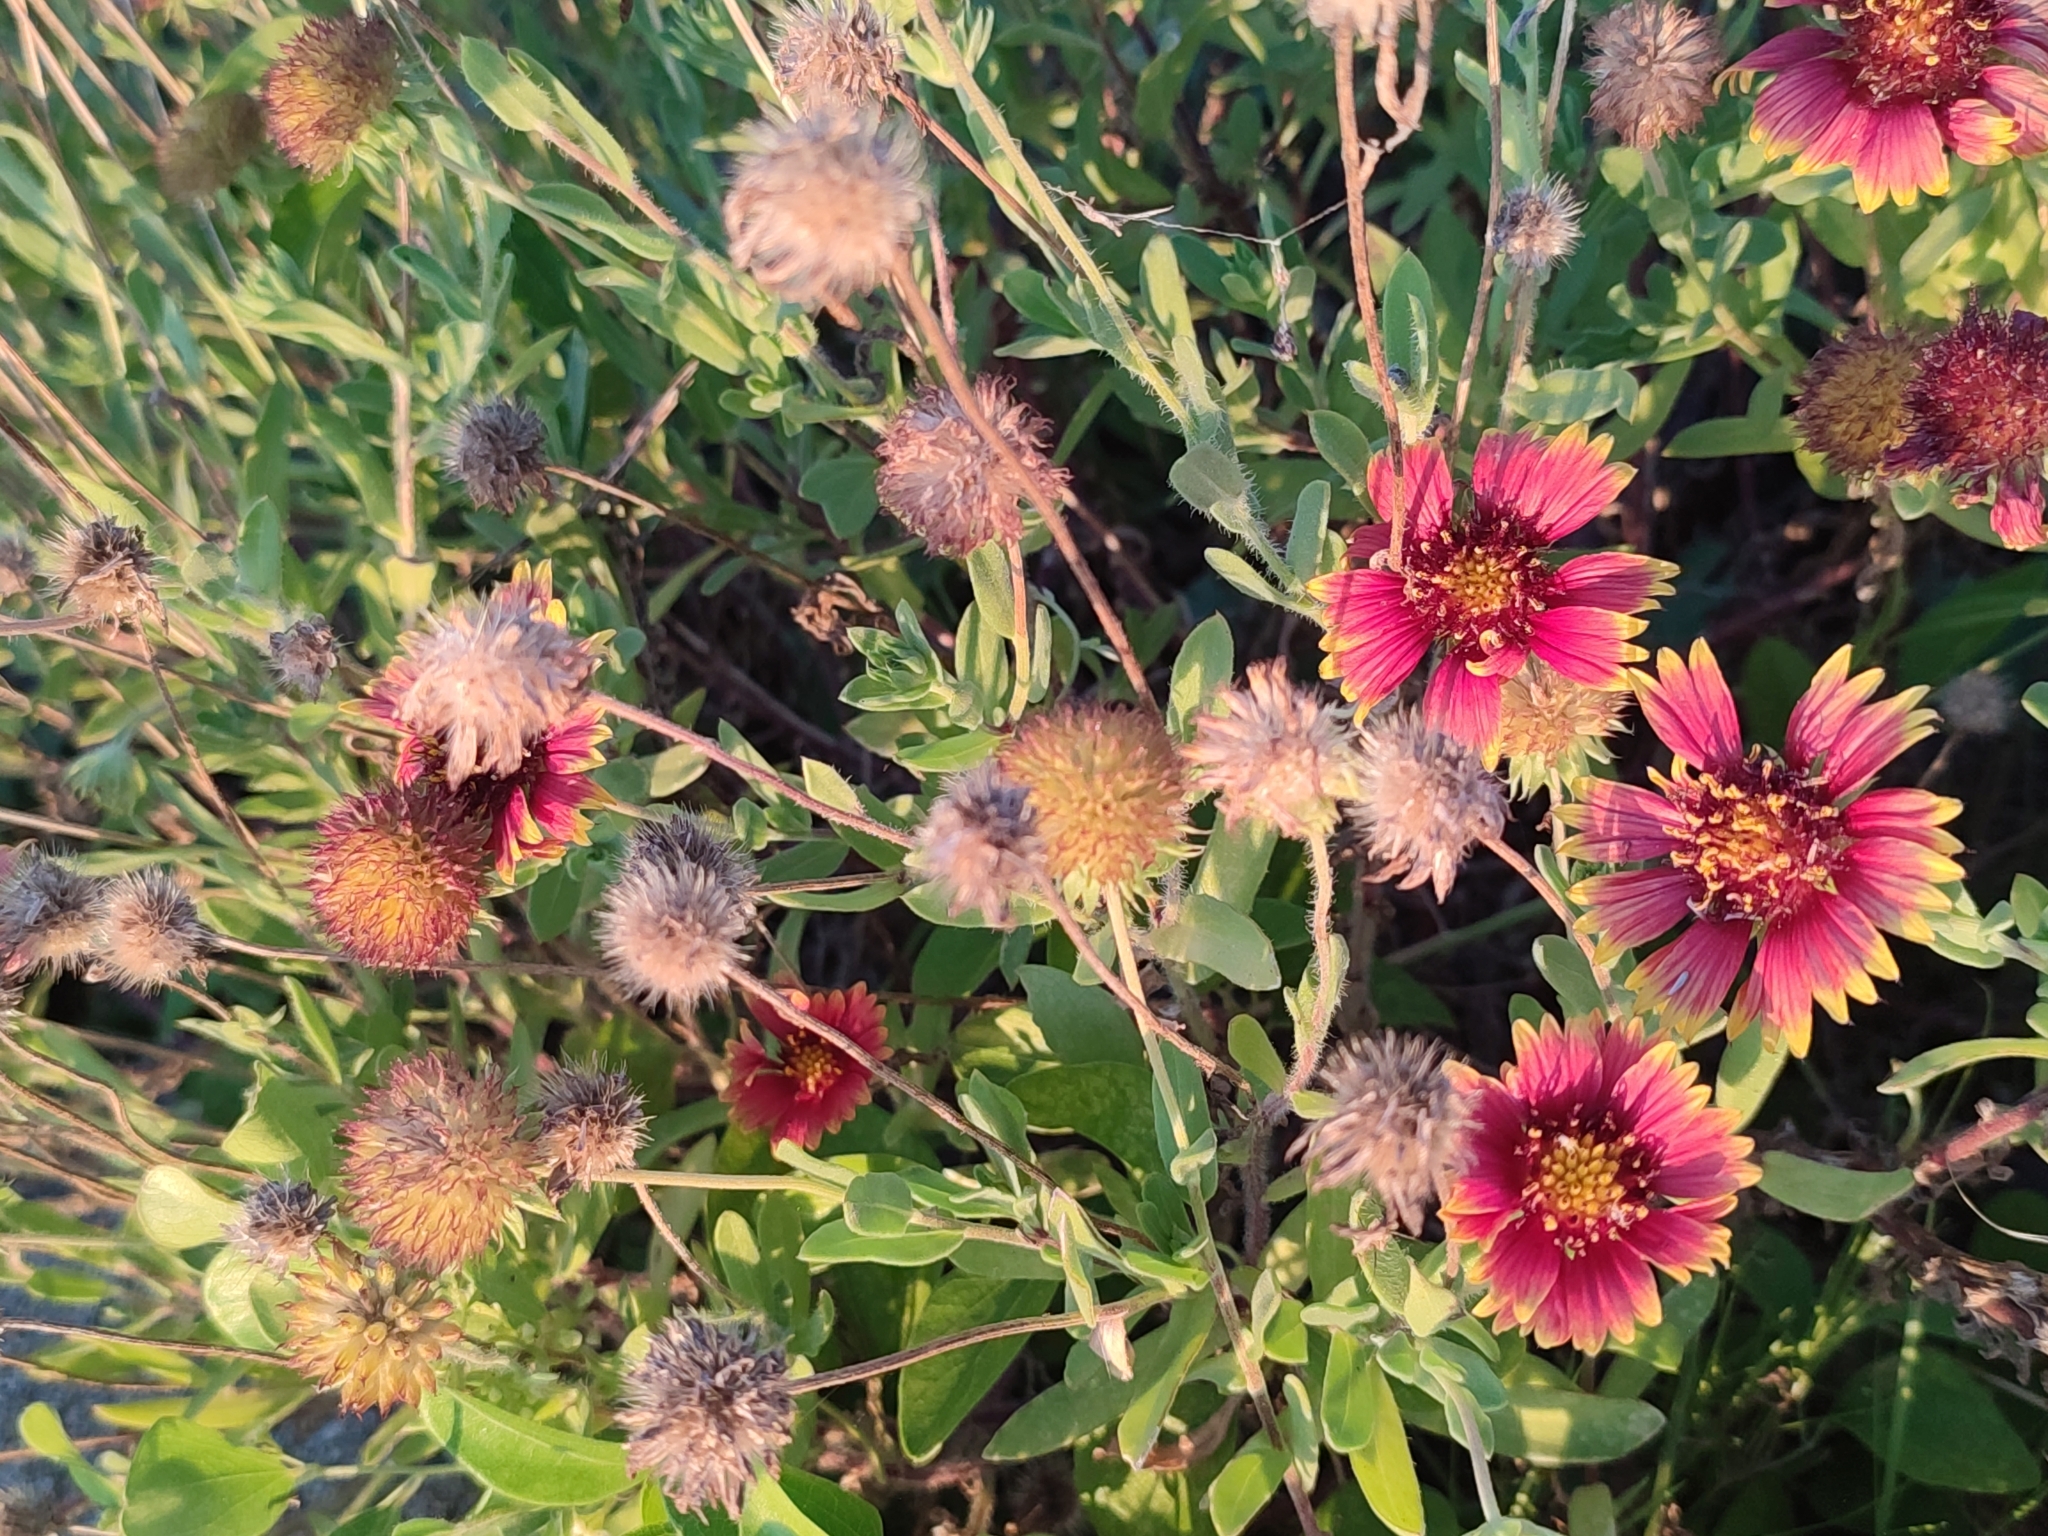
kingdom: Plantae
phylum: Tracheophyta
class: Magnoliopsida
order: Asterales
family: Asteraceae
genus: Gaillardia
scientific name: Gaillardia pulchella
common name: Firewheel
